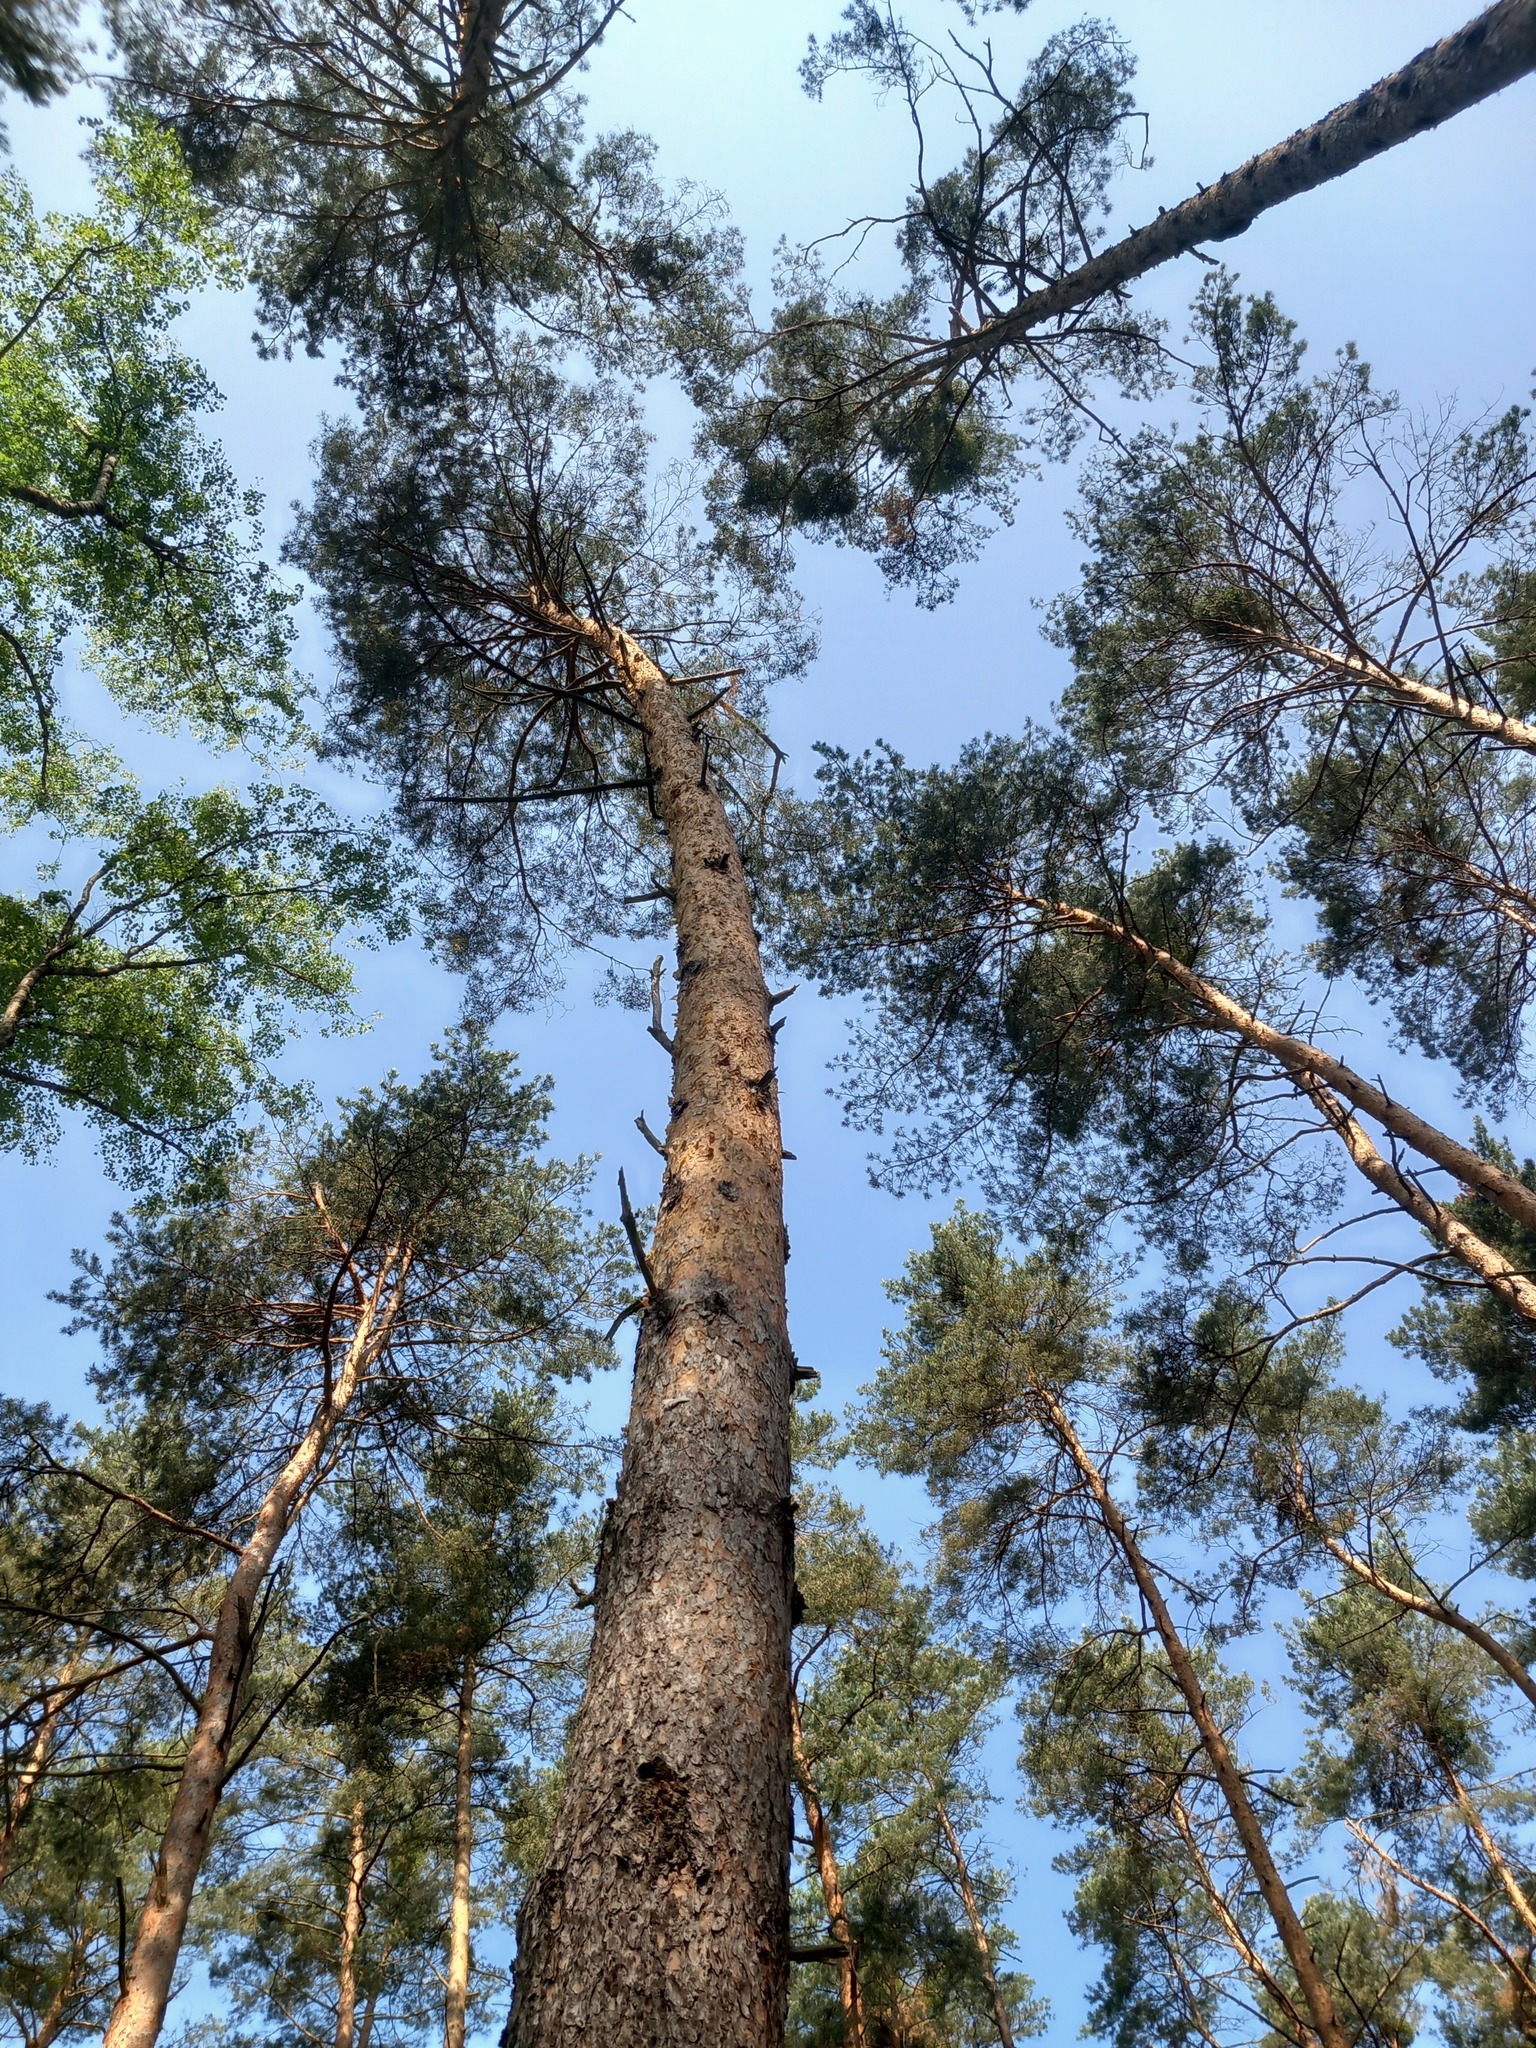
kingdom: Plantae
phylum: Tracheophyta
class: Pinopsida
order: Pinales
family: Pinaceae
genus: Pinus
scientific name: Pinus sylvestris
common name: Scots pine
